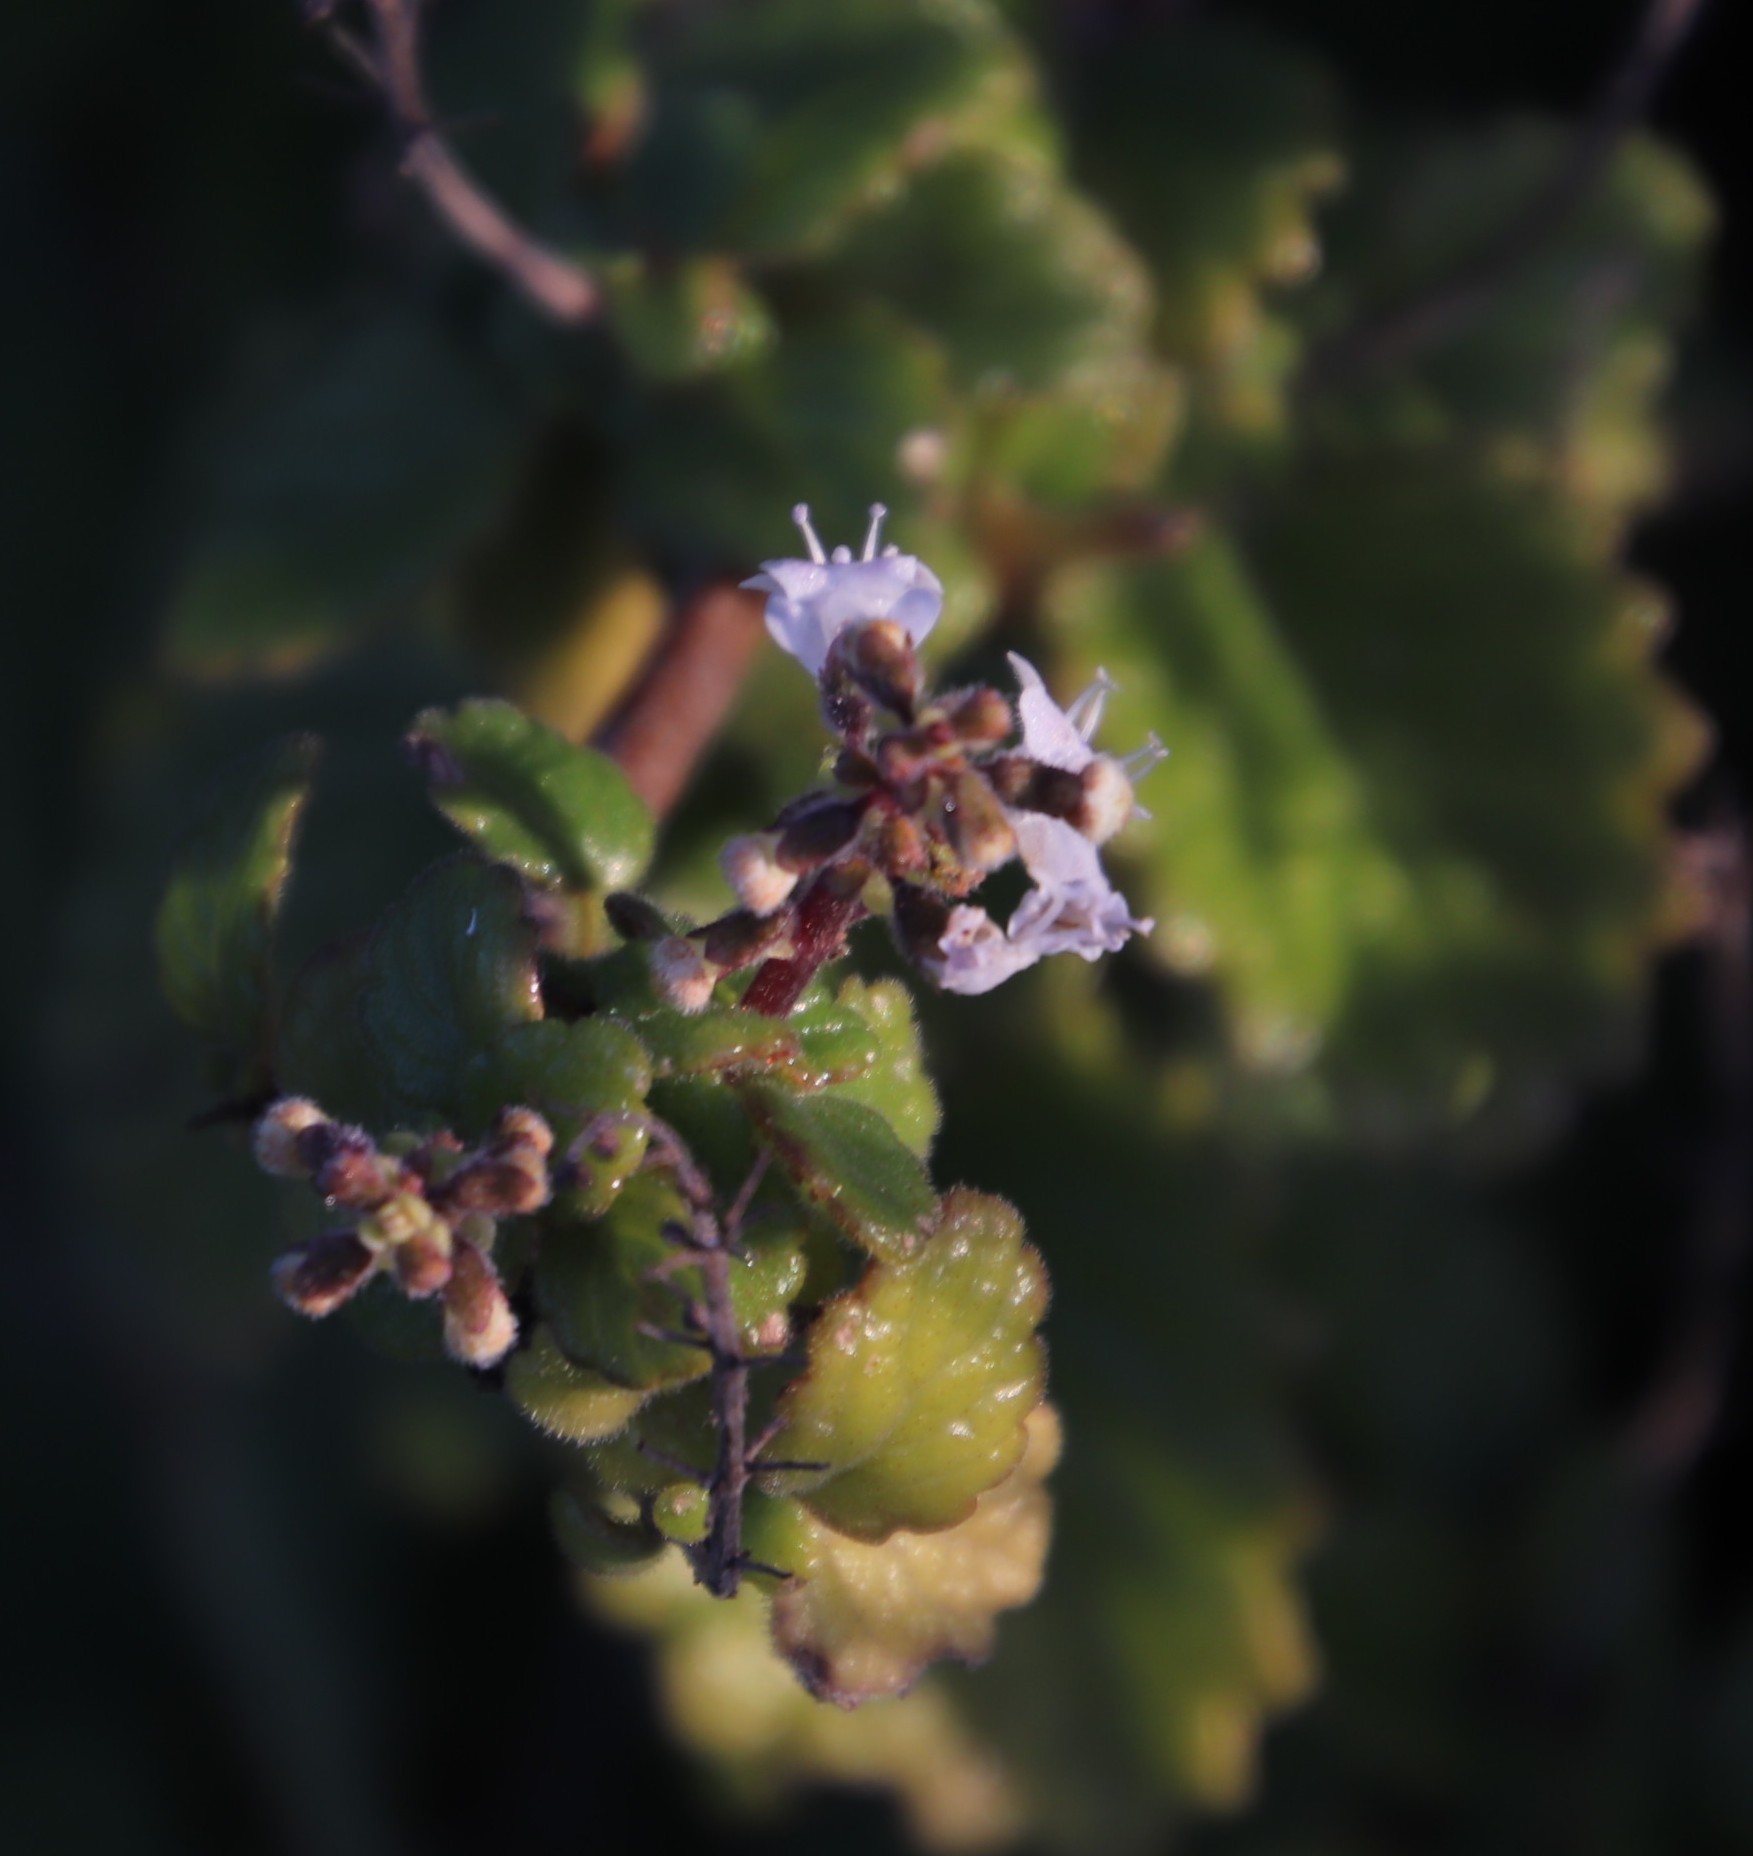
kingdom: Plantae
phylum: Tracheophyta
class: Magnoliopsida
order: Lamiales
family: Lamiaceae
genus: Coleus
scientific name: Coleus madagascariensis
